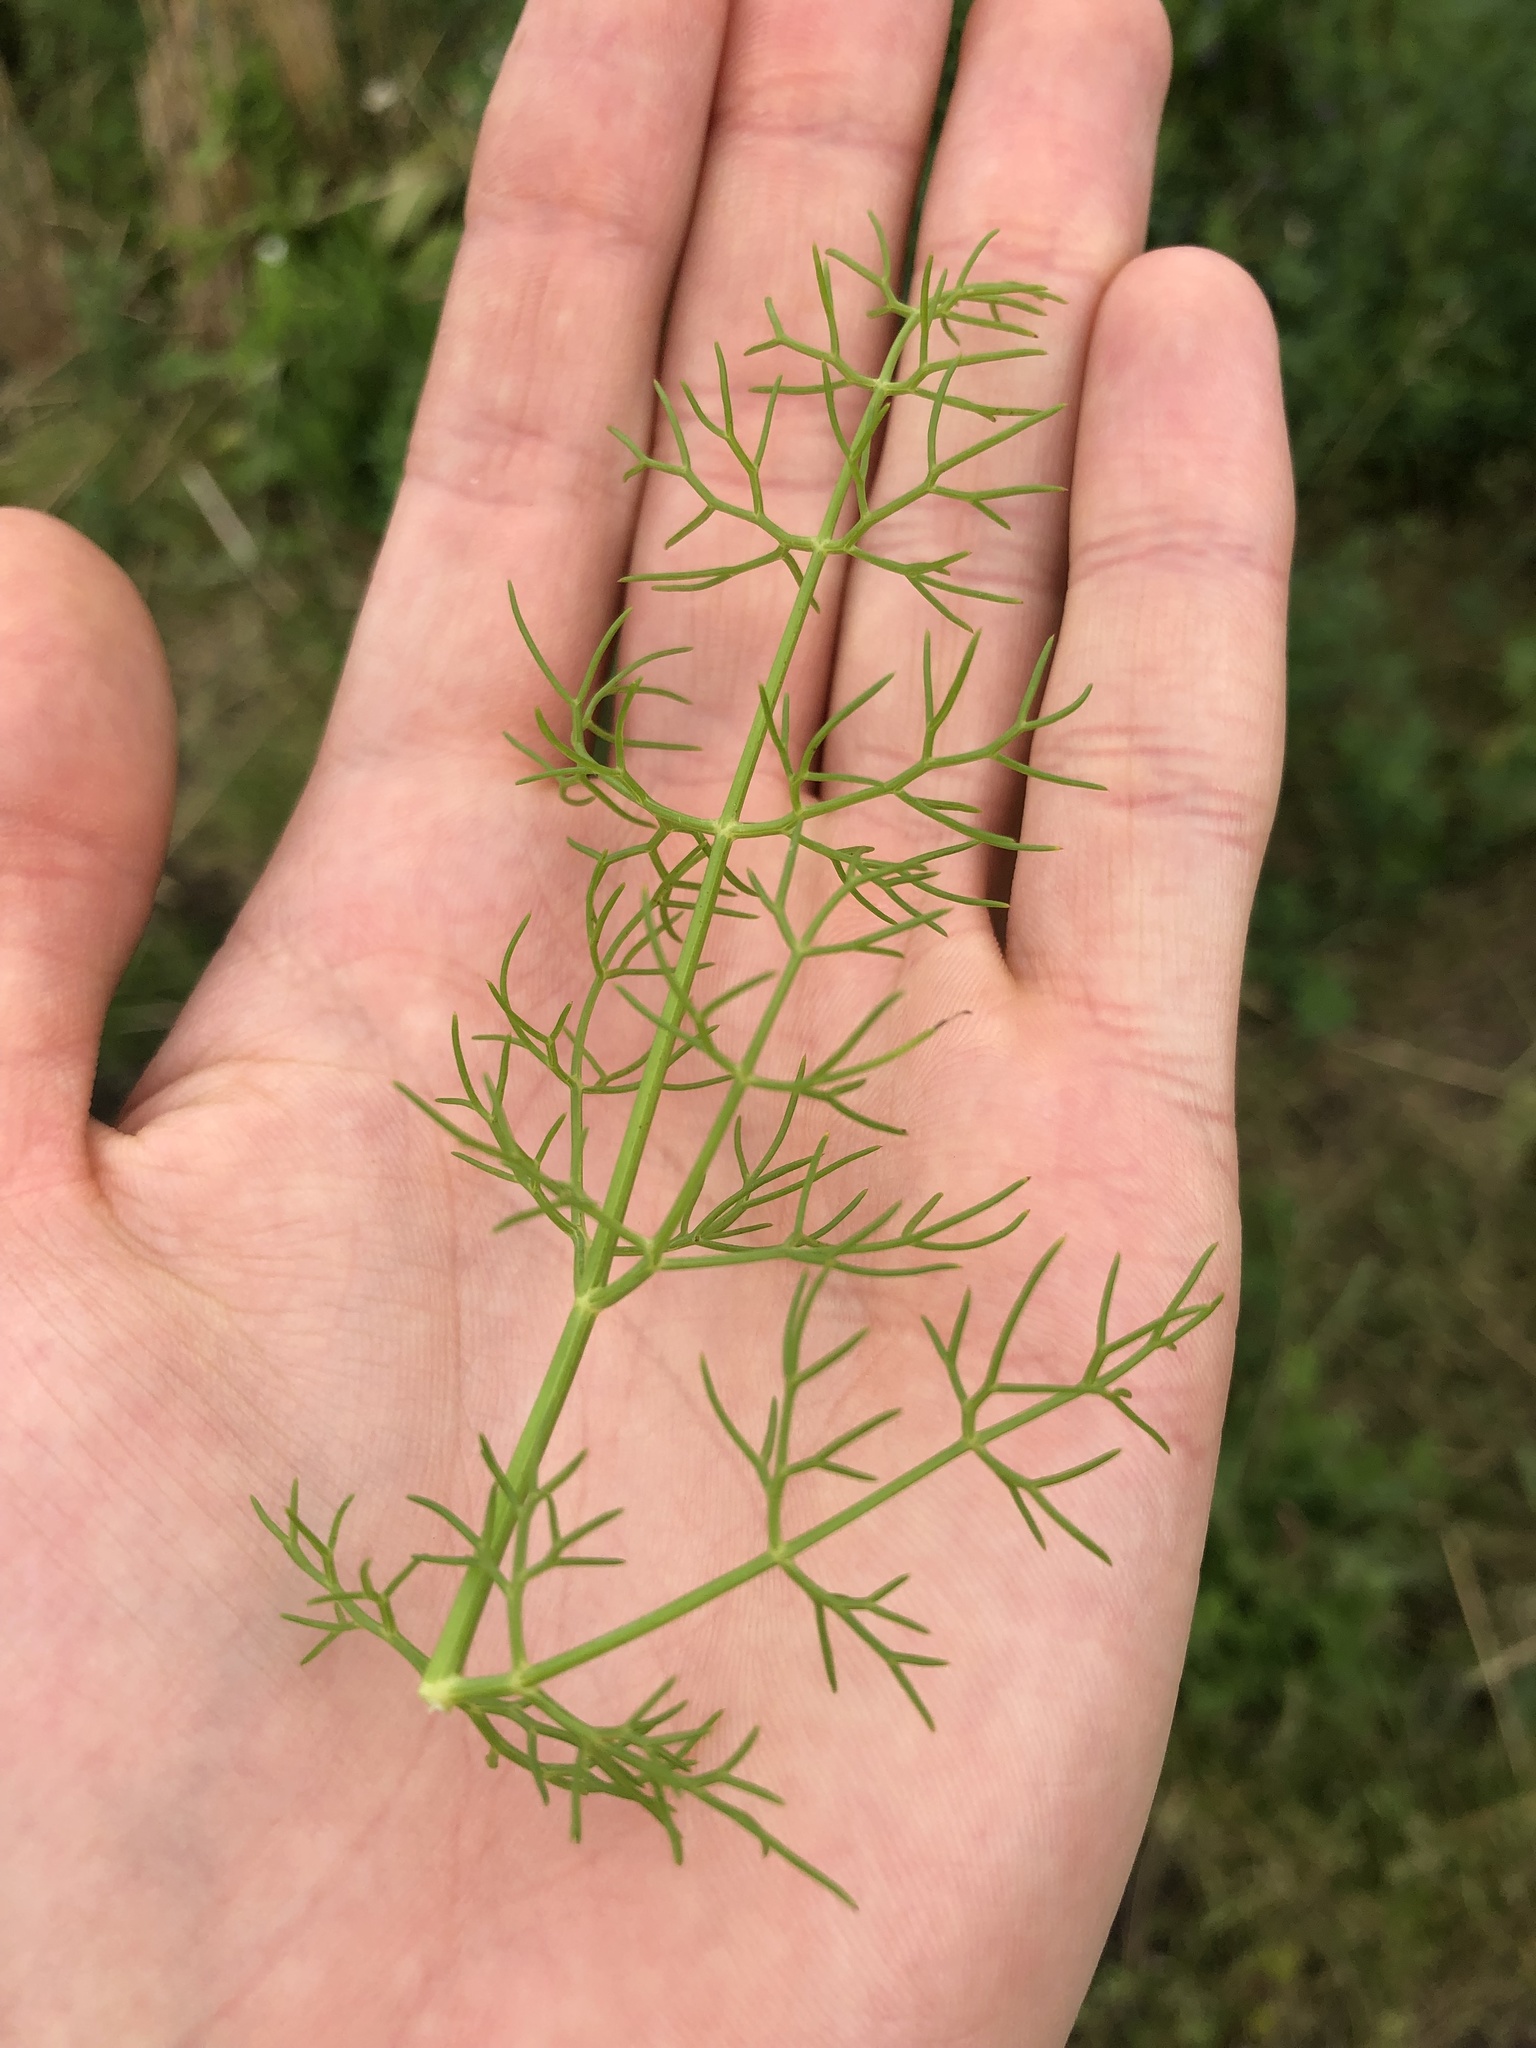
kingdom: Plantae
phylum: Tracheophyta
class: Magnoliopsida
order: Apiales
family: Apiaceae
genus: Foeniculum
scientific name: Foeniculum vulgare
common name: Fennel
